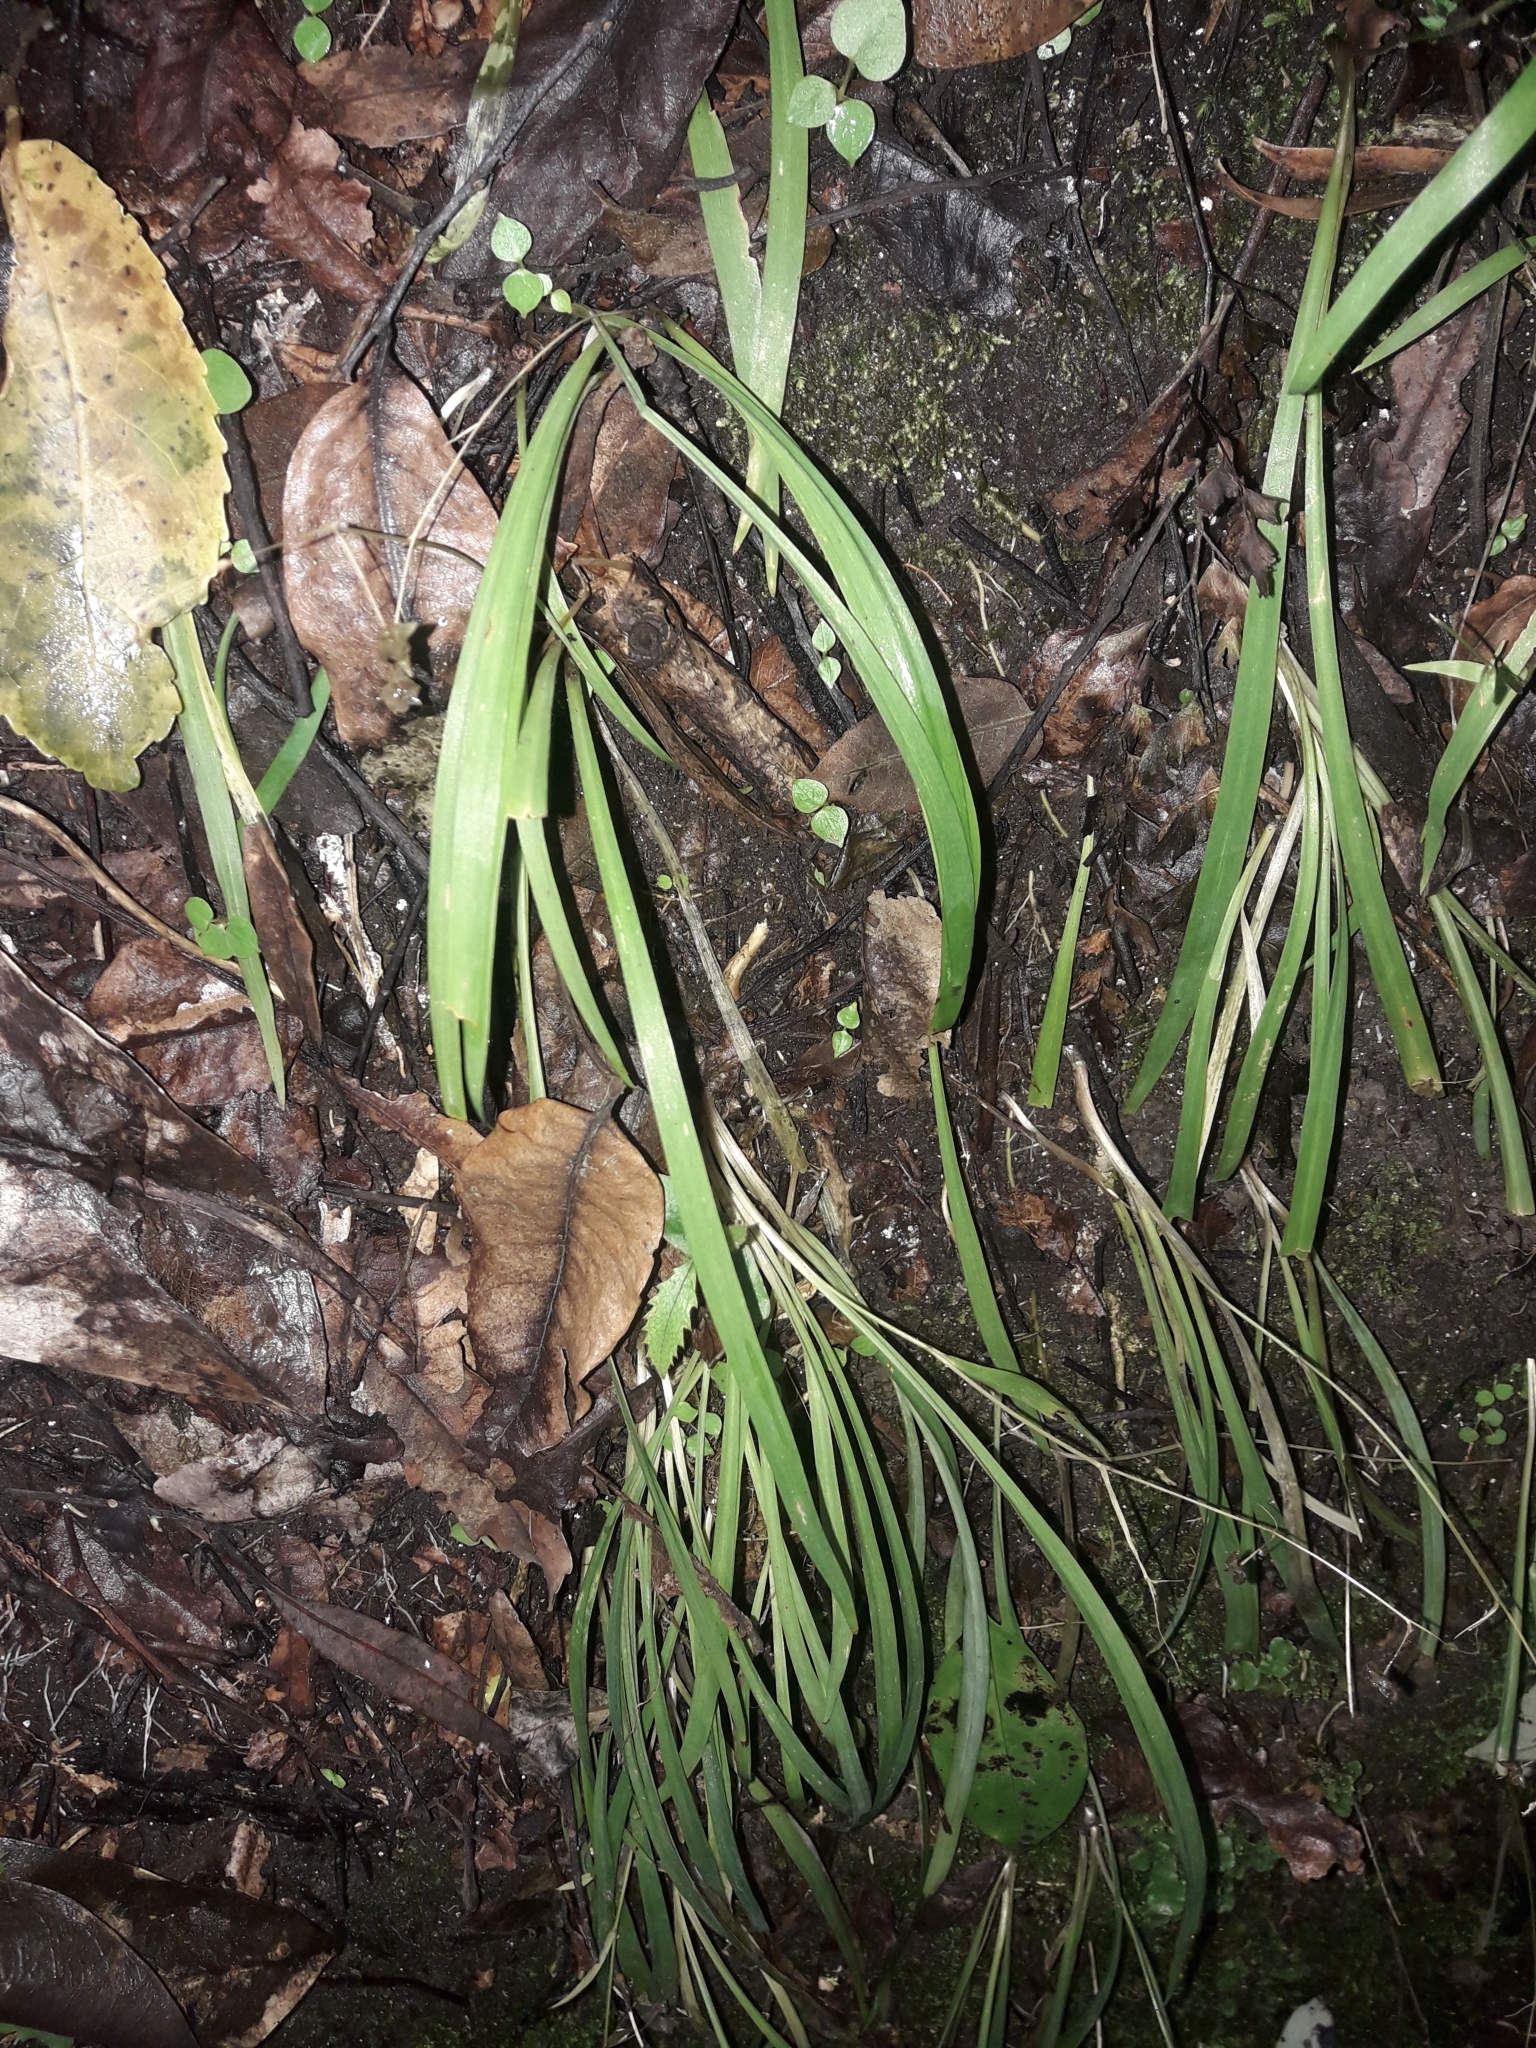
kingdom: Plantae
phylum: Tracheophyta
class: Liliopsida
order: Asparagales
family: Asparagaceae
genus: Arthropodium
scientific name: Arthropodium candidum
